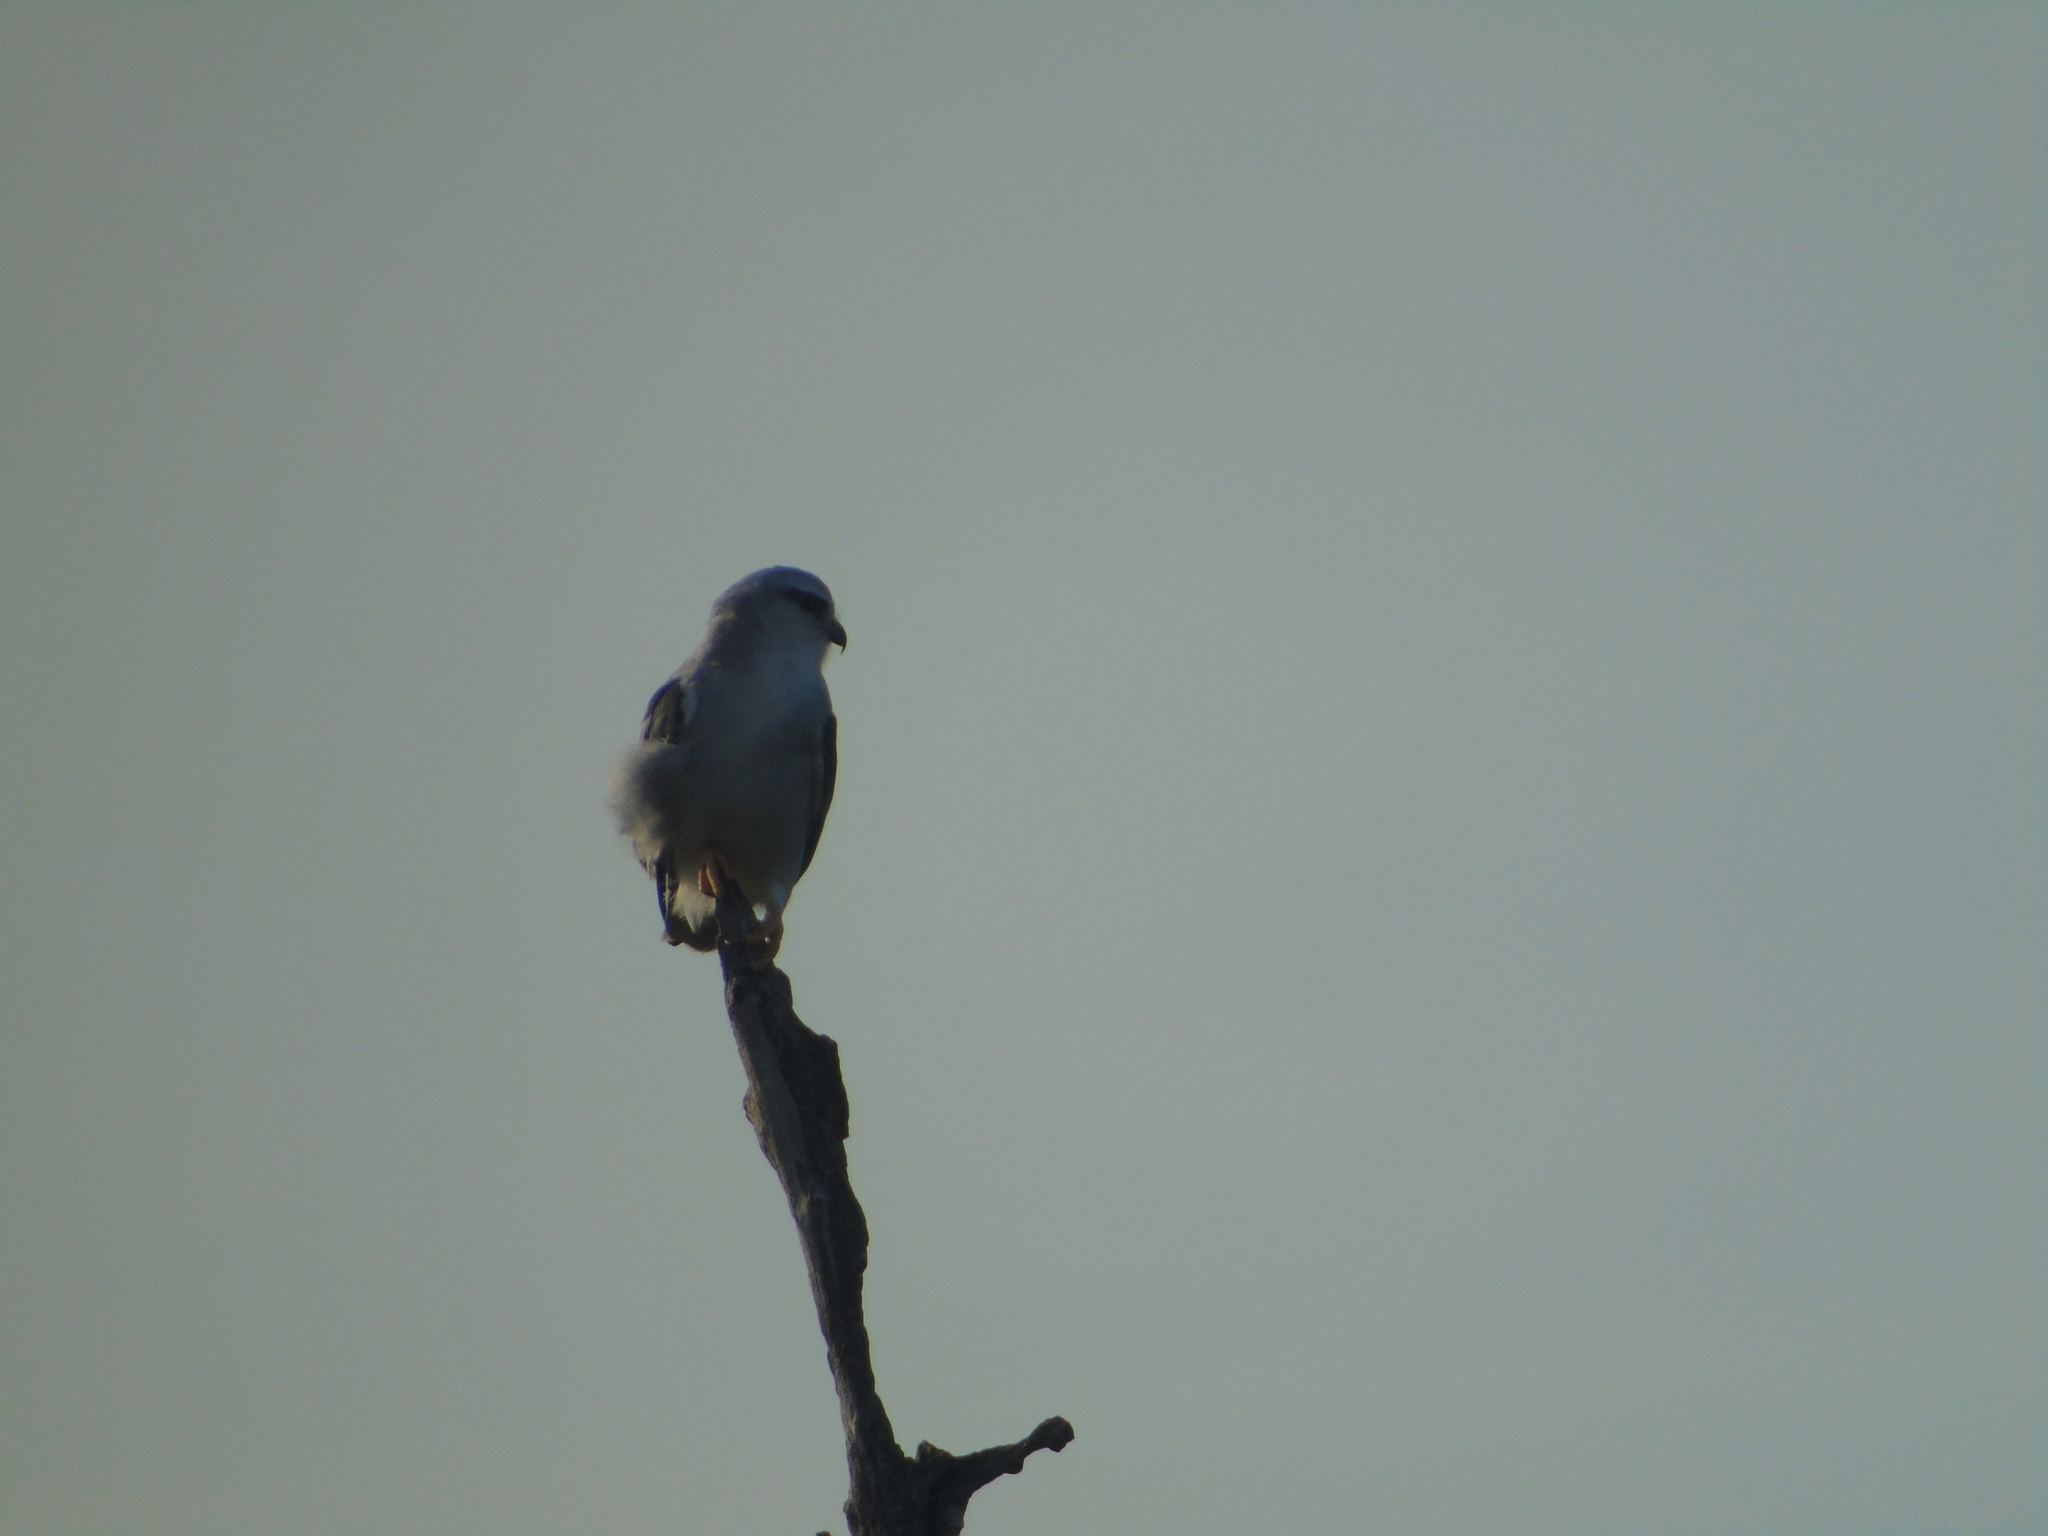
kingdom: Animalia
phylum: Chordata
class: Aves
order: Accipitriformes
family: Accipitridae
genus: Elanus
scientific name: Elanus caeruleus
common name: Black-winged kite
